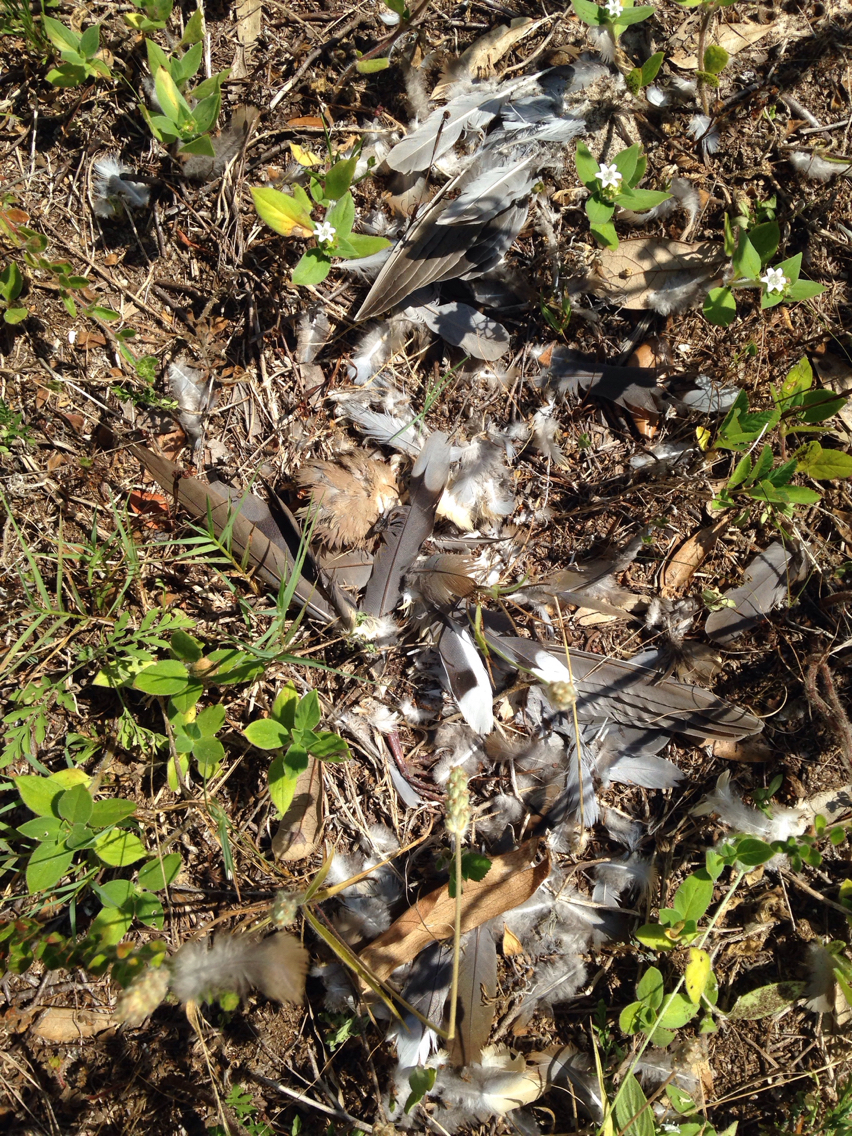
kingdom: Animalia
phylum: Chordata
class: Aves
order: Columbiformes
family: Columbidae
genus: Zenaida
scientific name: Zenaida macroura
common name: Mourning dove
